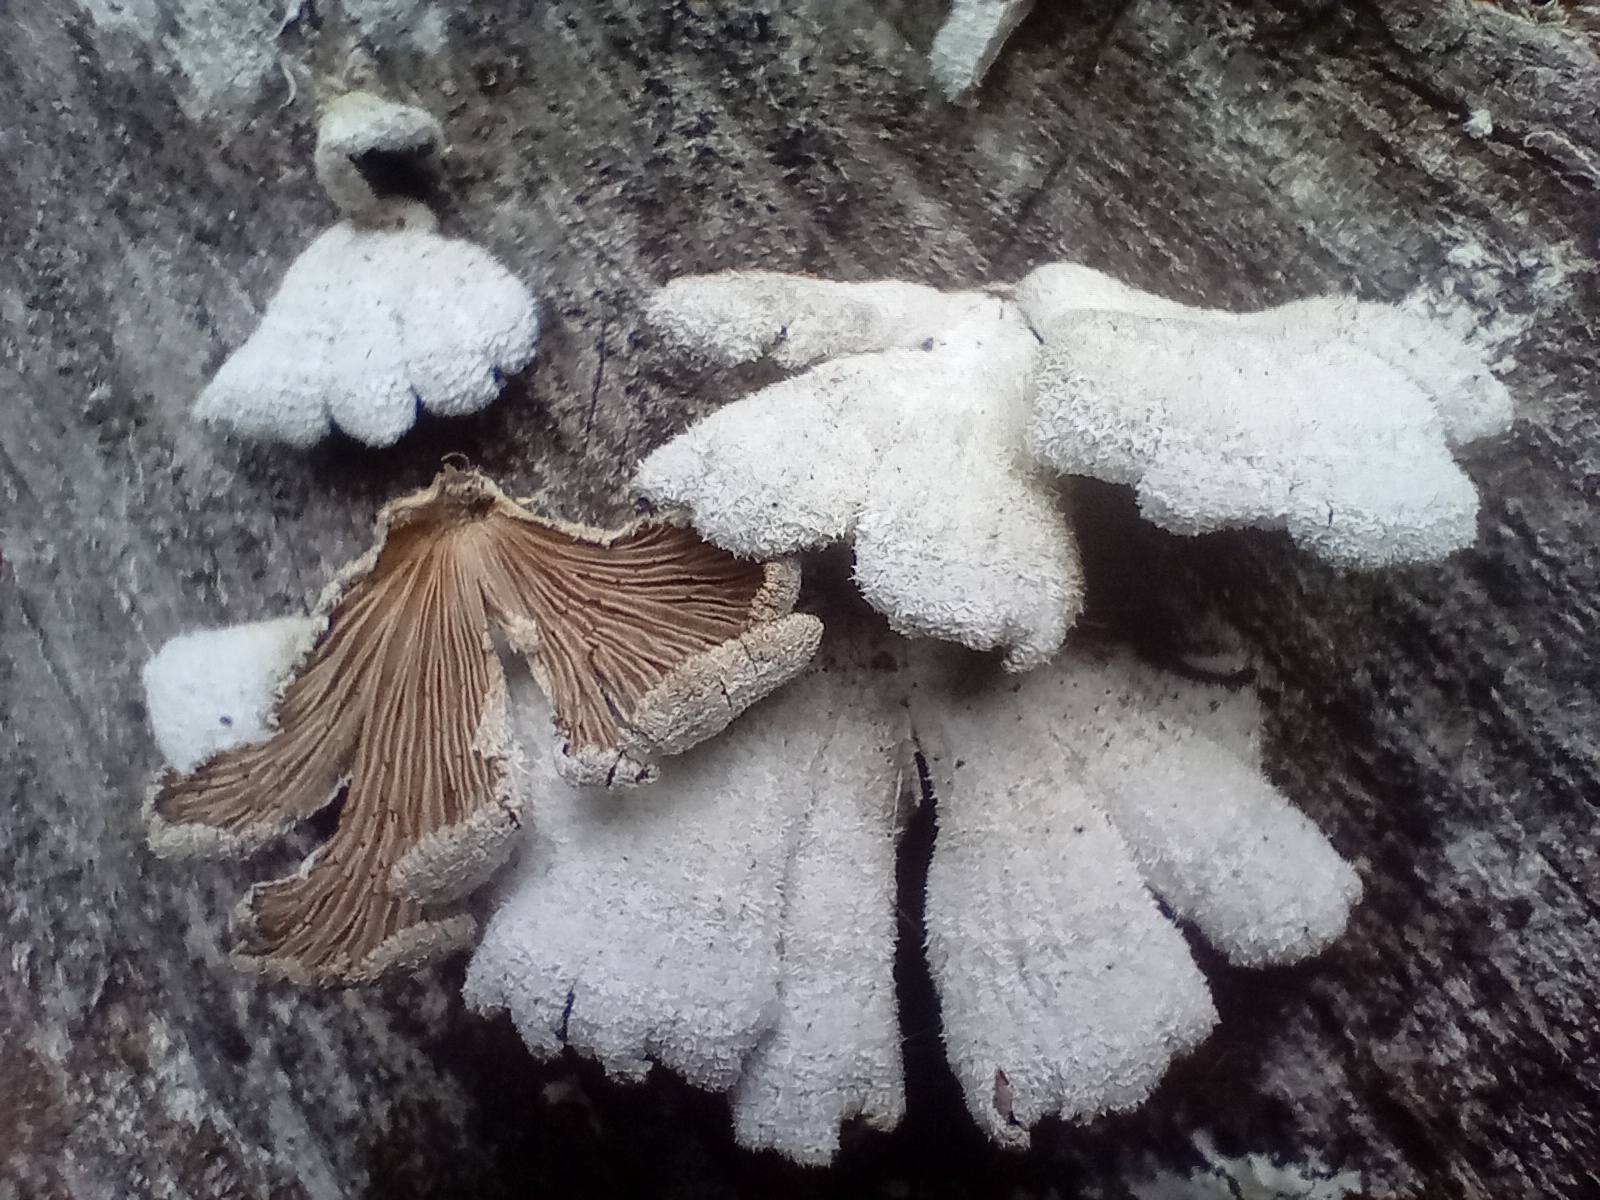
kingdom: Fungi
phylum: Basidiomycota
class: Agaricomycetes
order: Agaricales
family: Schizophyllaceae
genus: Schizophyllum
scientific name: Schizophyllum commune
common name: Common porecrust
